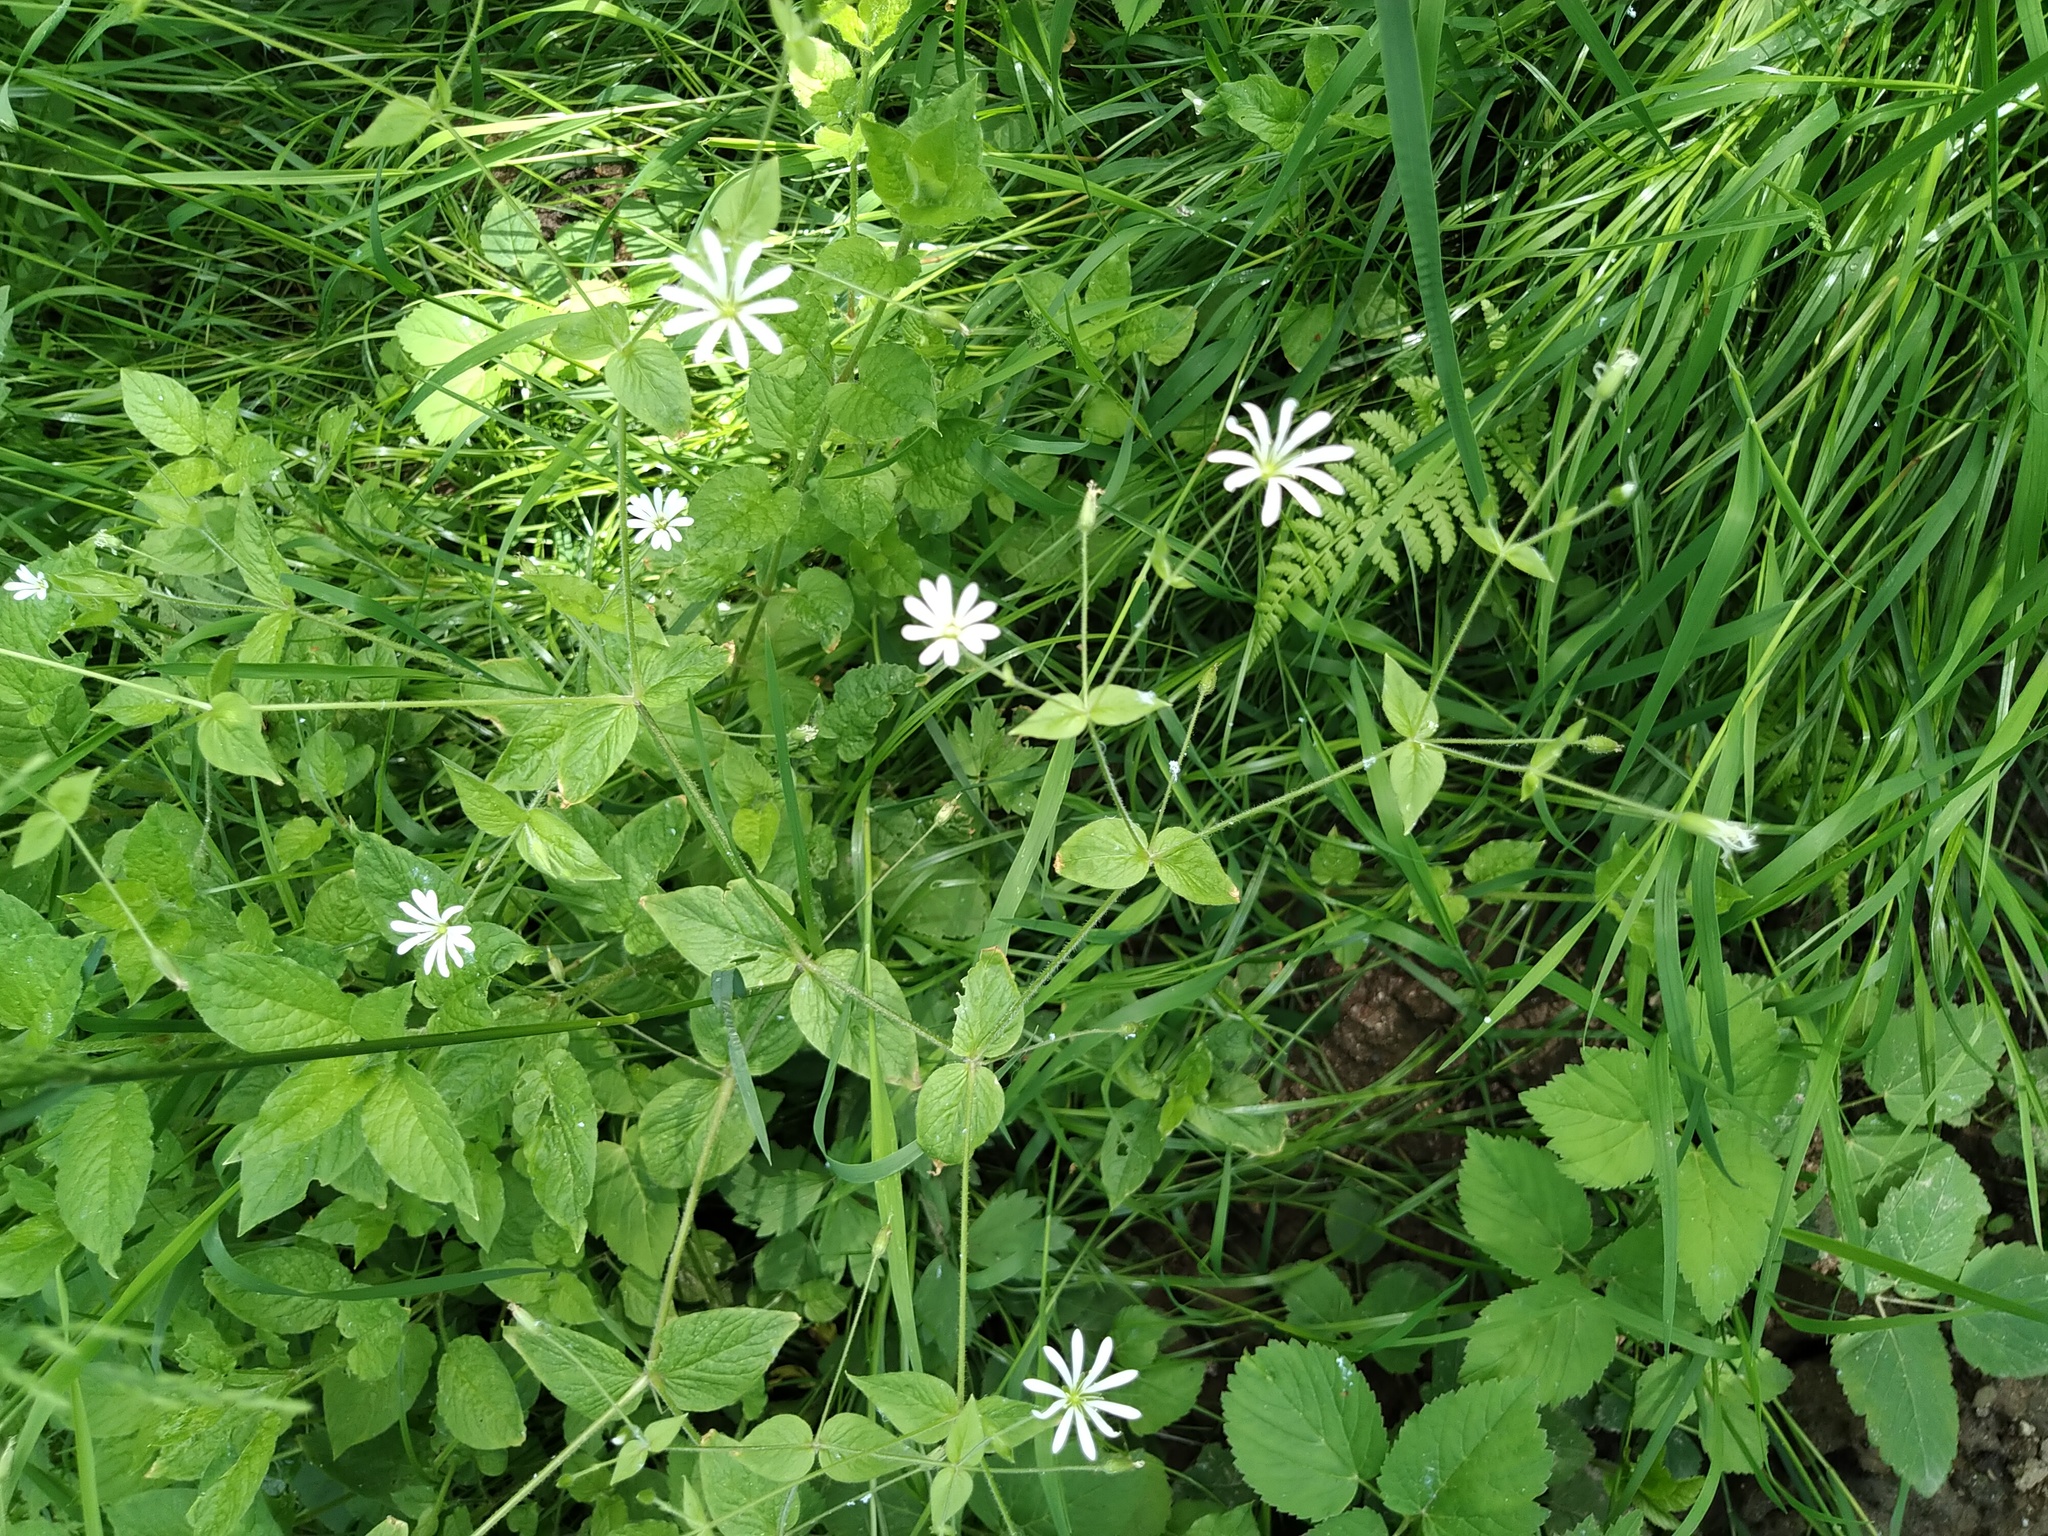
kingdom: Plantae
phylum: Tracheophyta
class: Magnoliopsida
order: Caryophyllales
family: Caryophyllaceae
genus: Stellaria
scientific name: Stellaria nemorum
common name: Wood stitchwort
